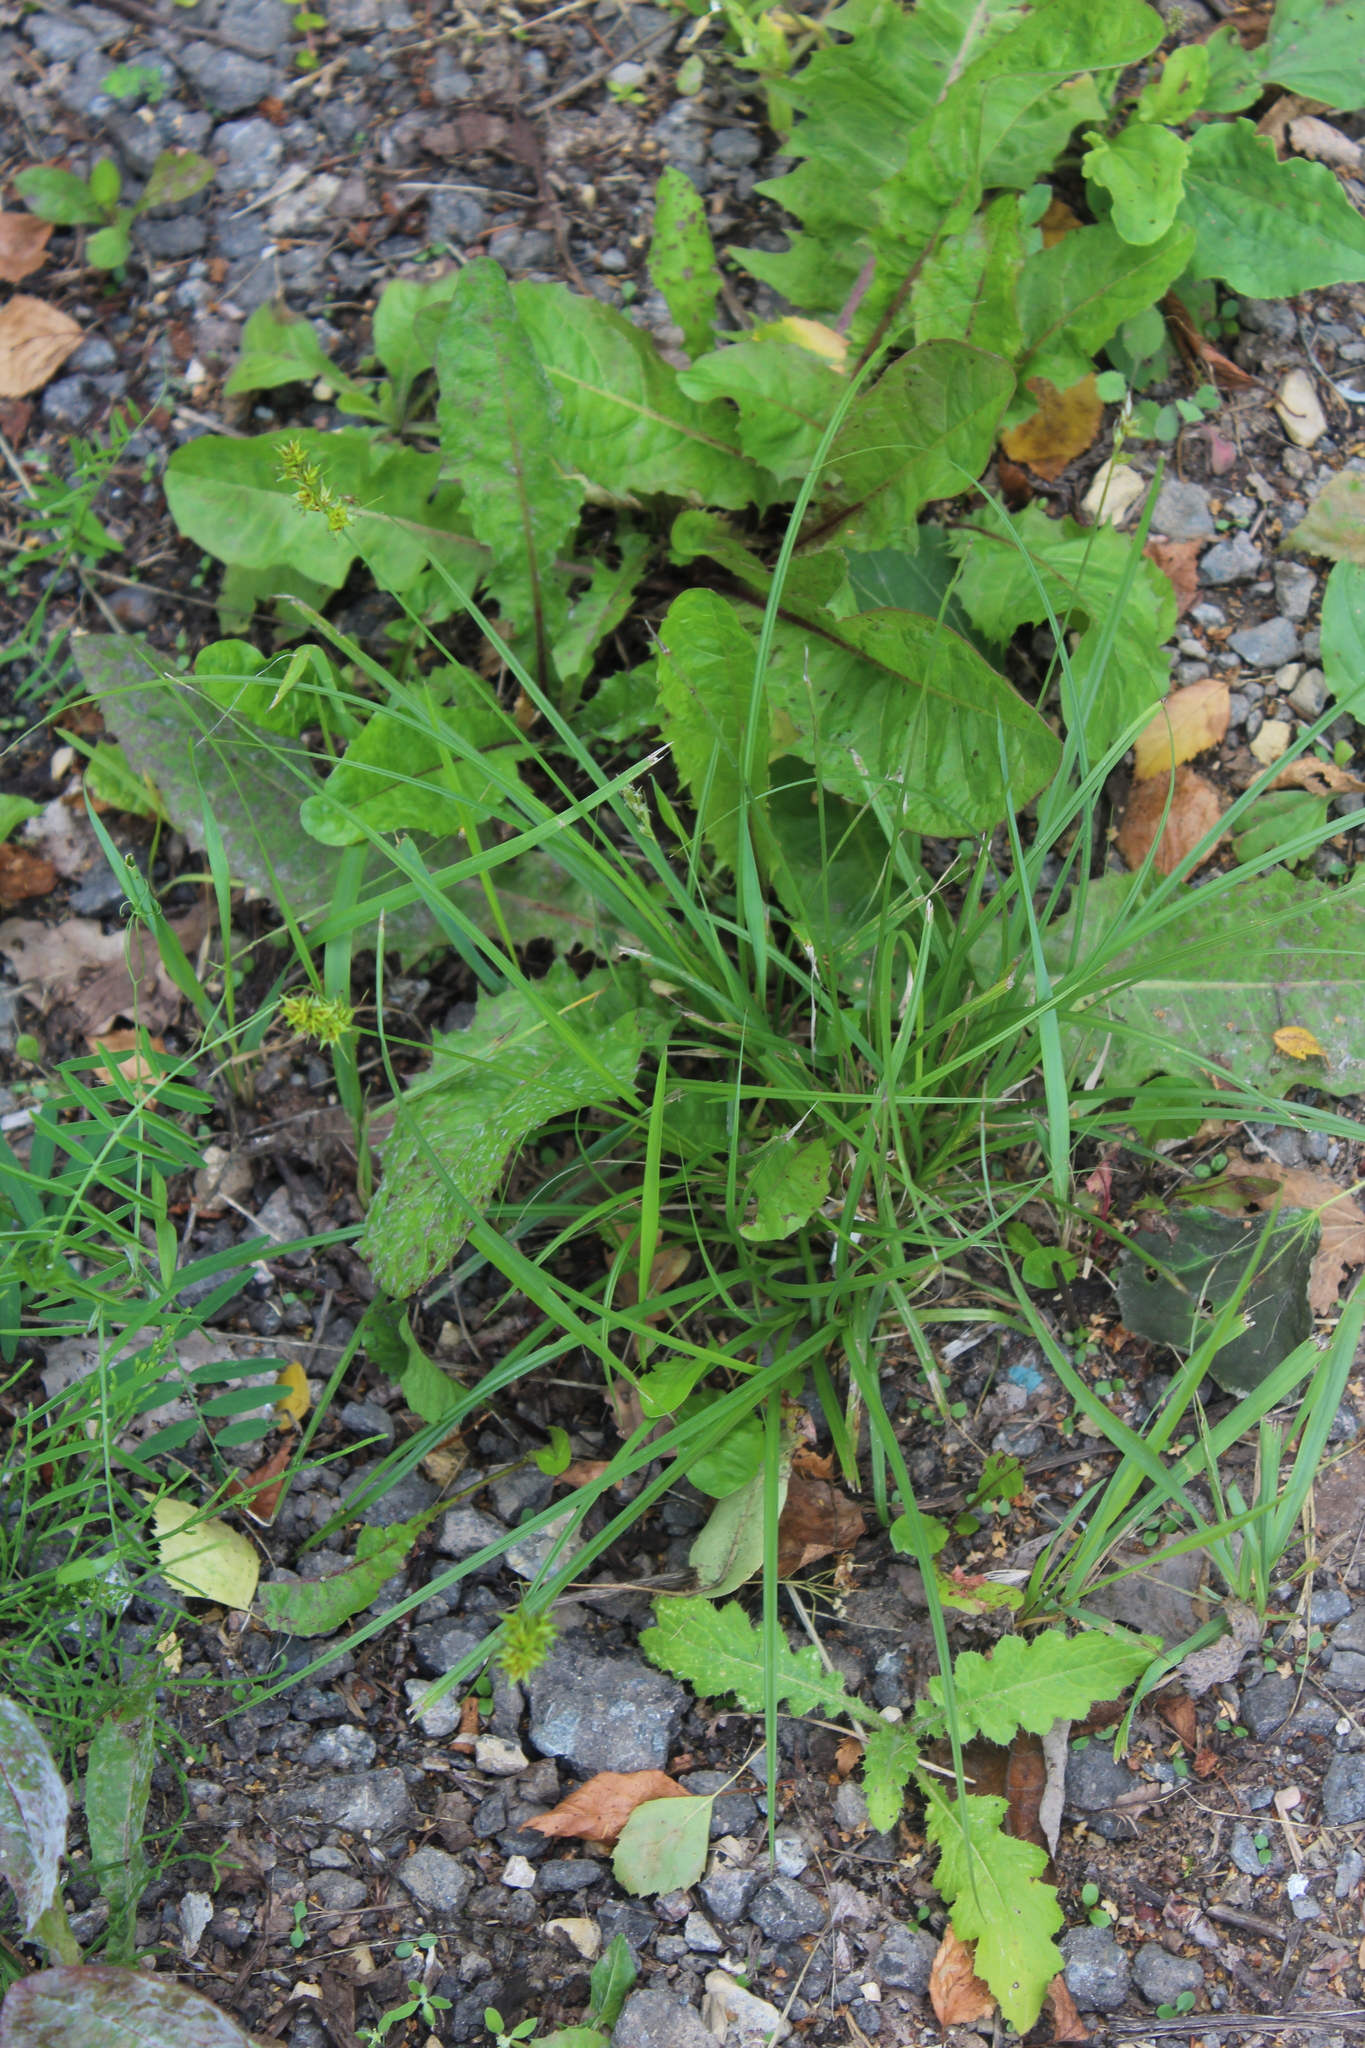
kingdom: Plantae
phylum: Tracheophyta
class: Liliopsida
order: Poales
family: Cyperaceae
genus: Carex
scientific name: Carex spicata
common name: Spiked sedge
